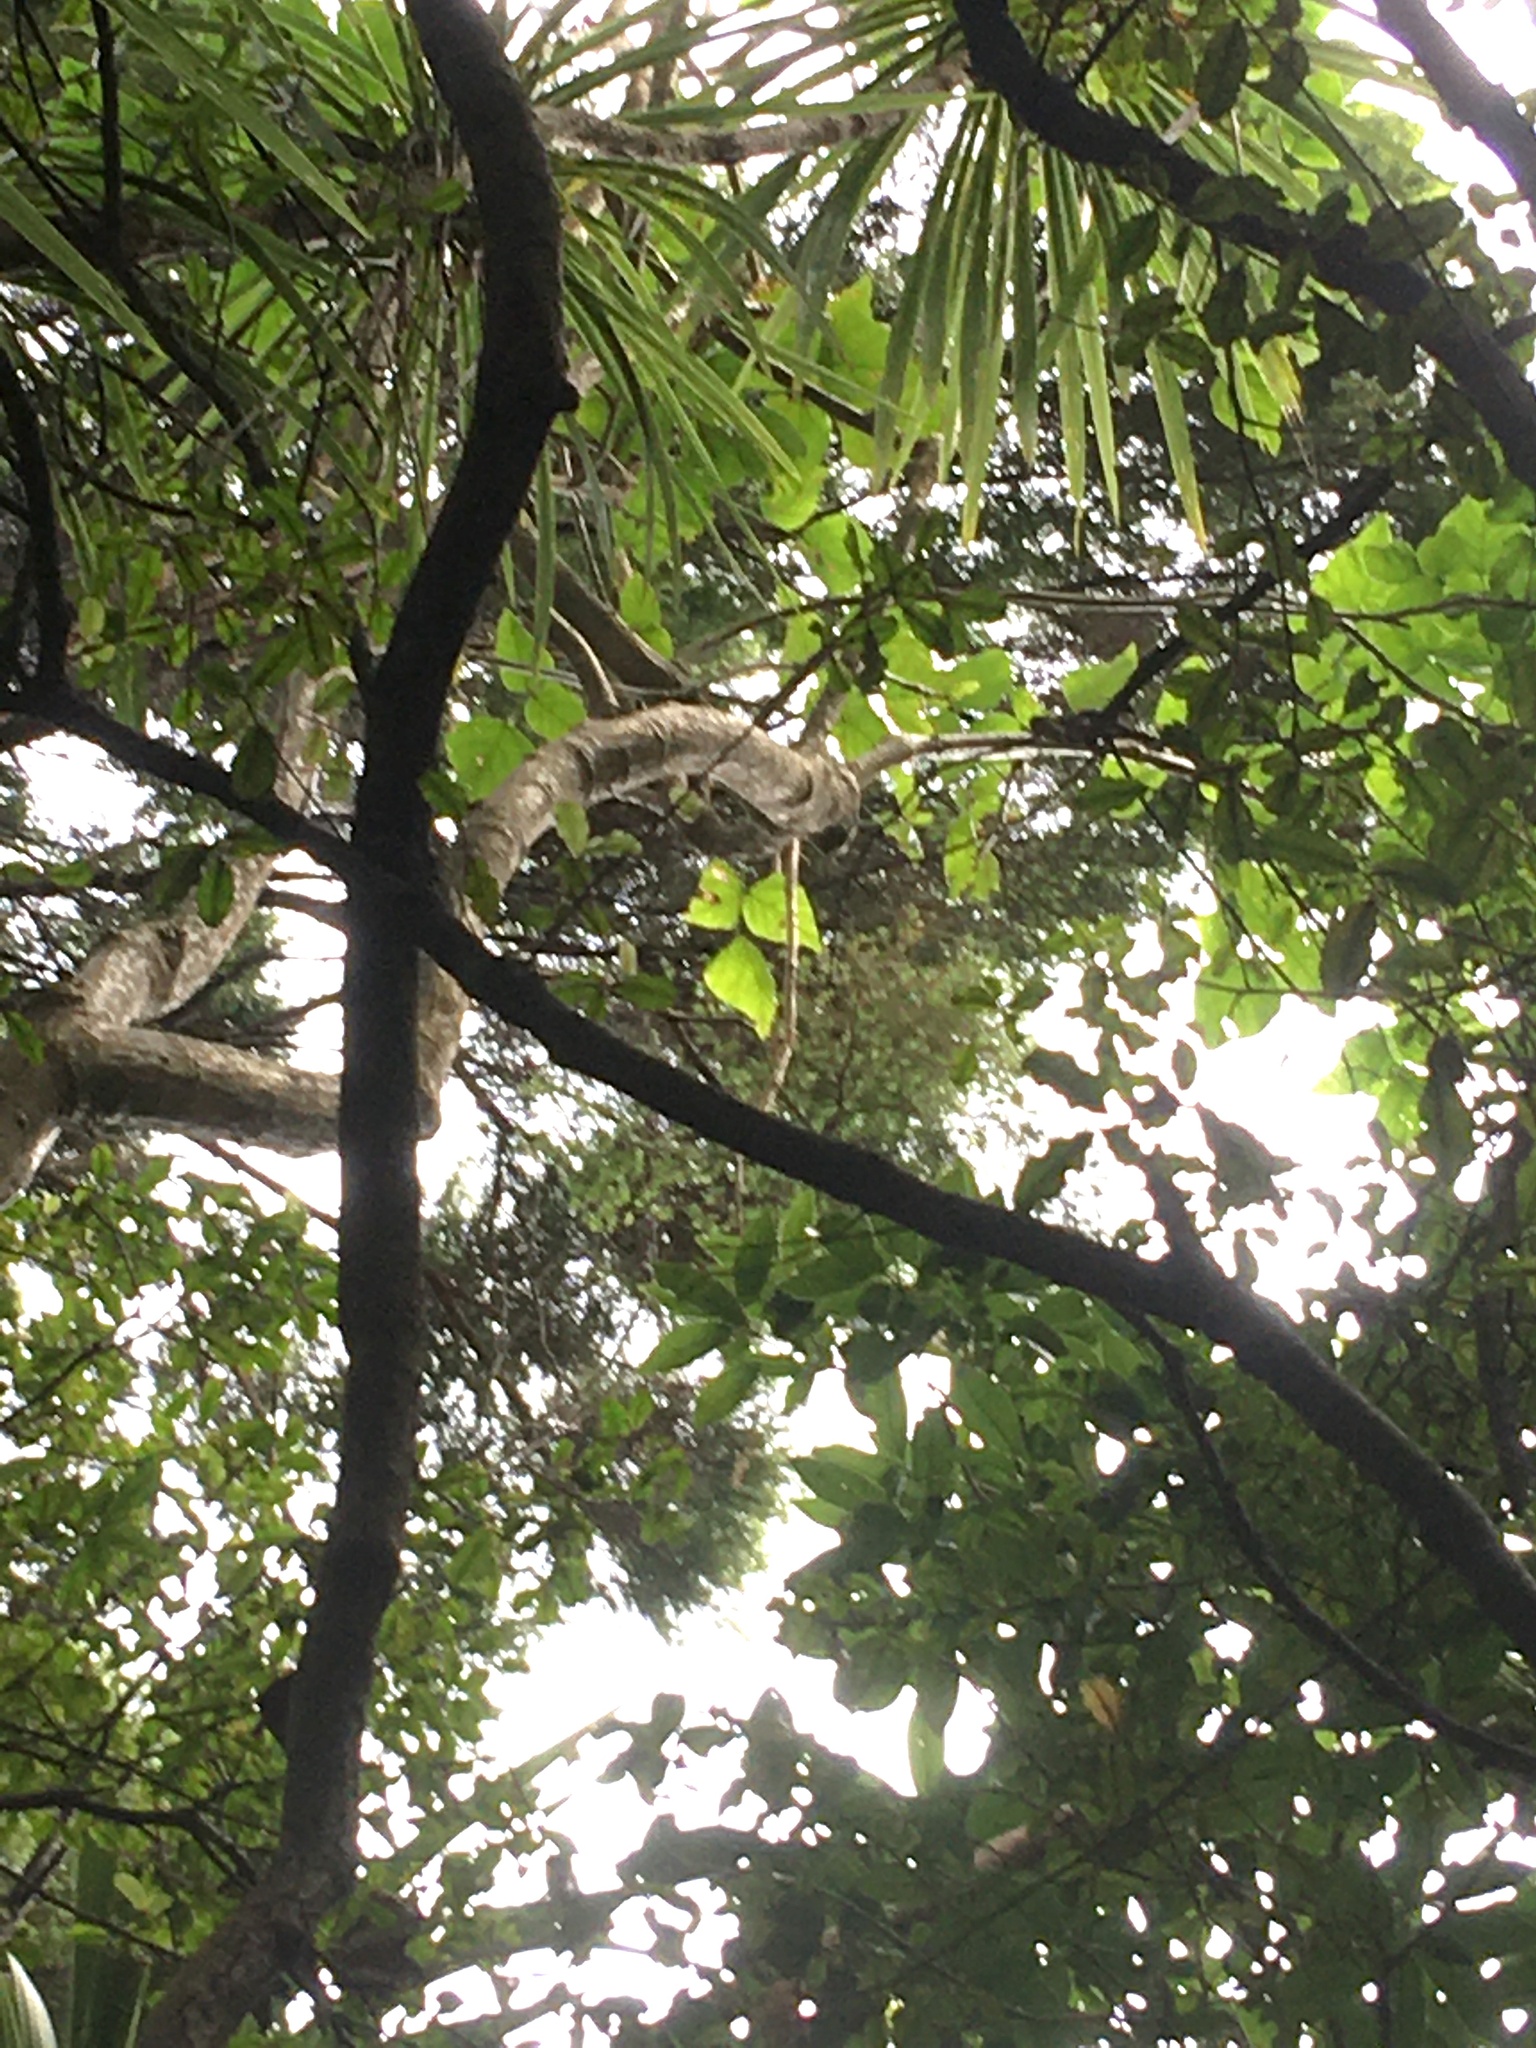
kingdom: Plantae
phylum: Tracheophyta
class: Magnoliopsida
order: Fabales
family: Fabaceae
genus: Erythrina
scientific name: Erythrina sykesii
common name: Coraltree
